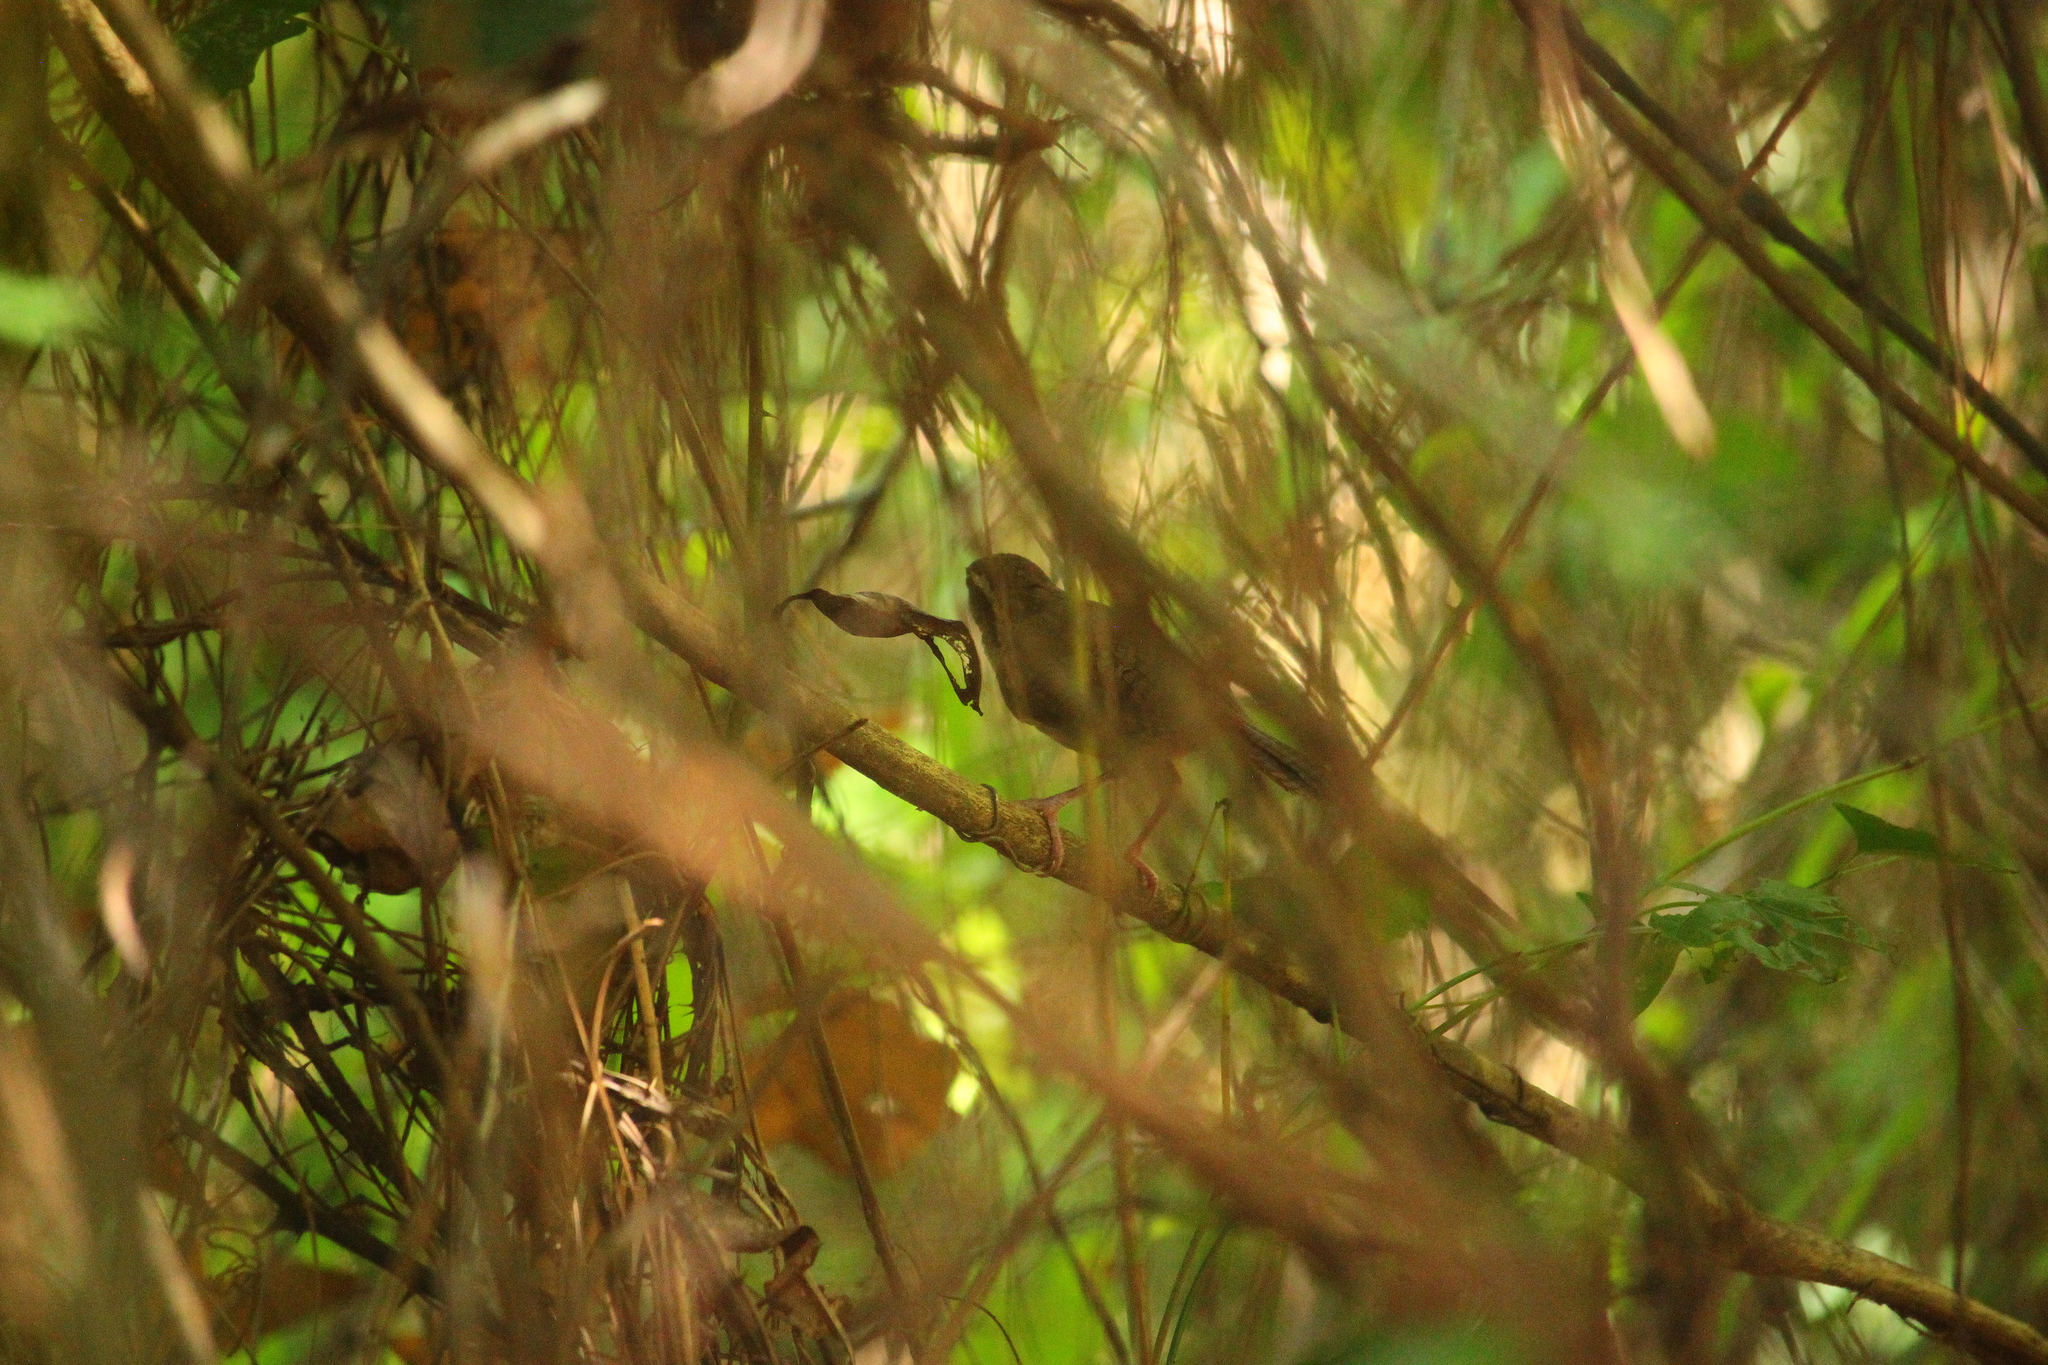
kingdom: Animalia
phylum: Chordata
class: Aves
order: Passeriformes
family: Troglodytidae
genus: Thryothorus
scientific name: Thryothorus ludovicianus
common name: Carolina wren
